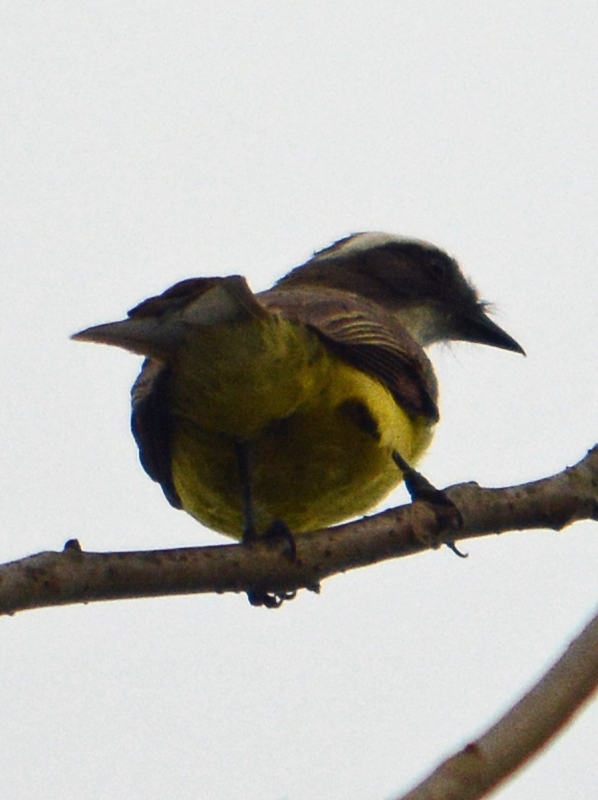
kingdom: Animalia
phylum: Chordata
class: Aves
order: Passeriformes
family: Tyrannidae
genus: Myiozetetes
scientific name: Myiozetetes similis
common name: Social flycatcher
